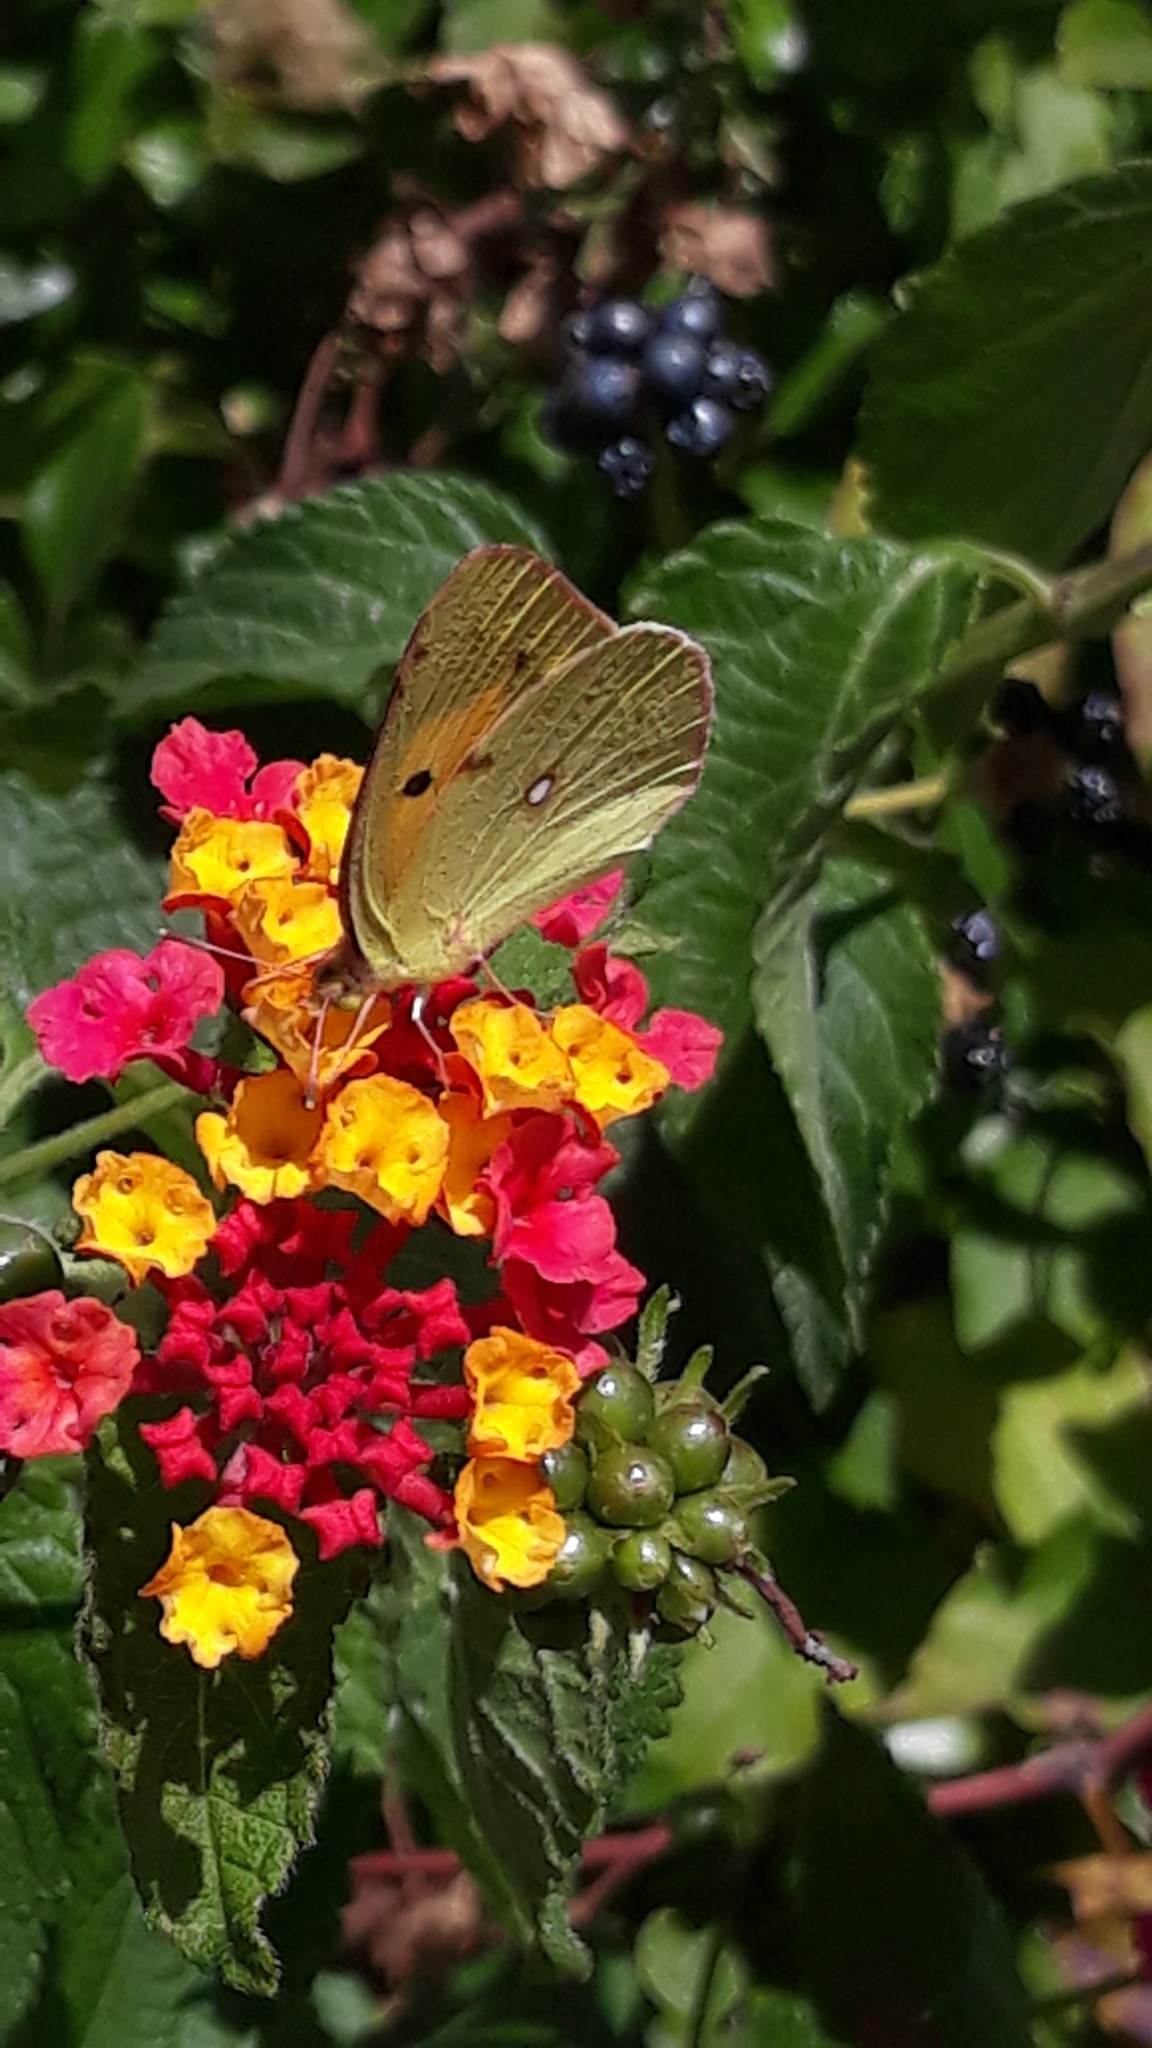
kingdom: Animalia
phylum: Arthropoda
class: Insecta
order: Lepidoptera
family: Pieridae
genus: Colias
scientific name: Colias croceus
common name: Clouded yellow
